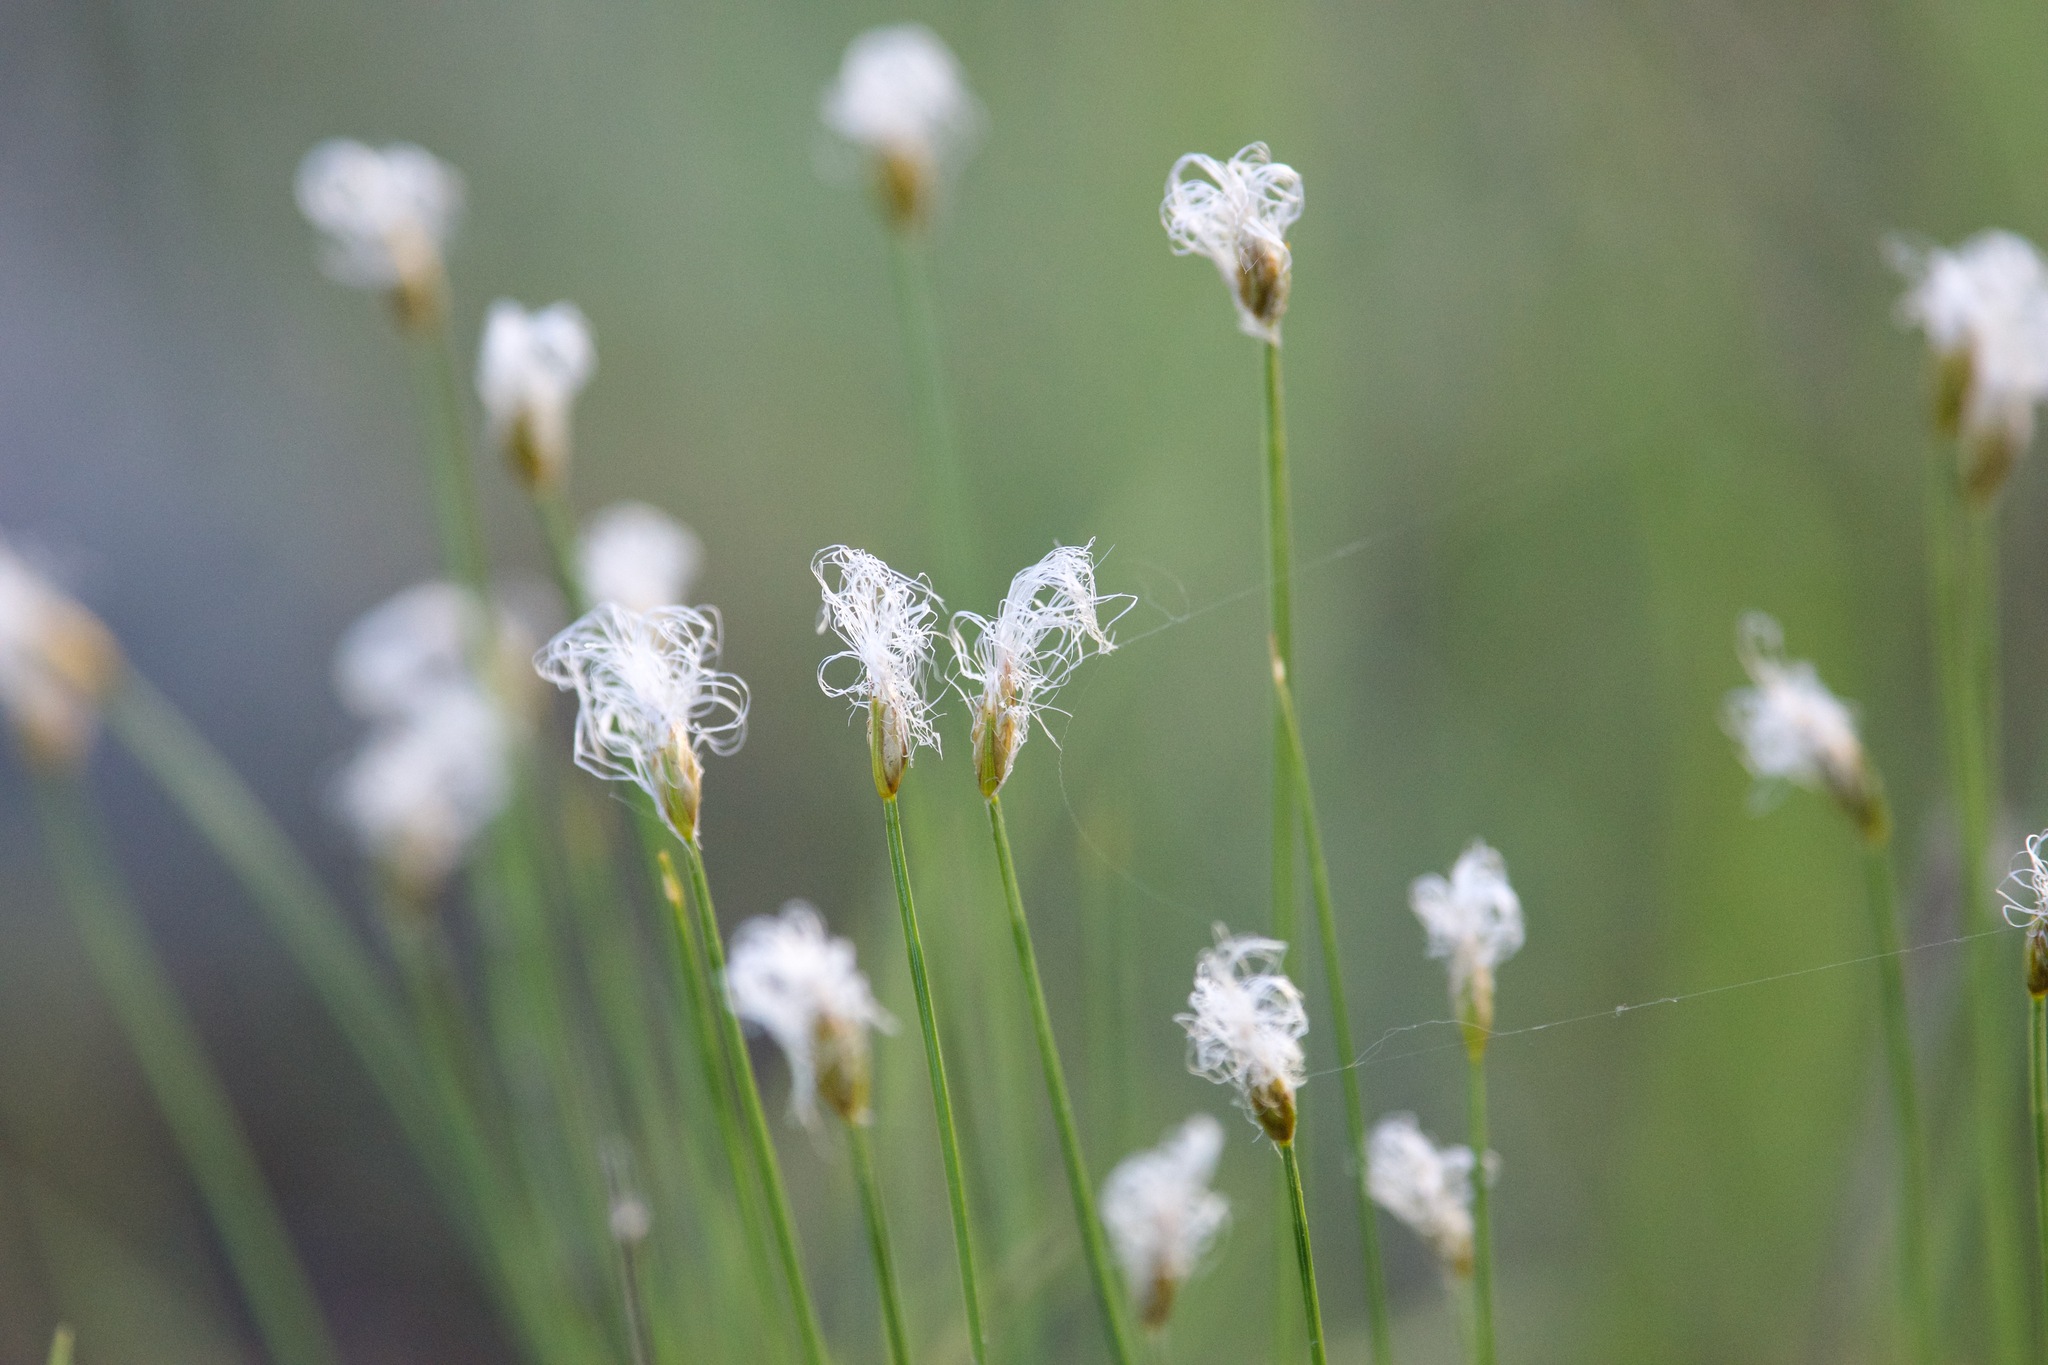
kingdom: Plantae
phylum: Tracheophyta
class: Liliopsida
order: Poales
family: Cyperaceae
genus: Trichophorum
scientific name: Trichophorum alpinum
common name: Alpine bulrush
